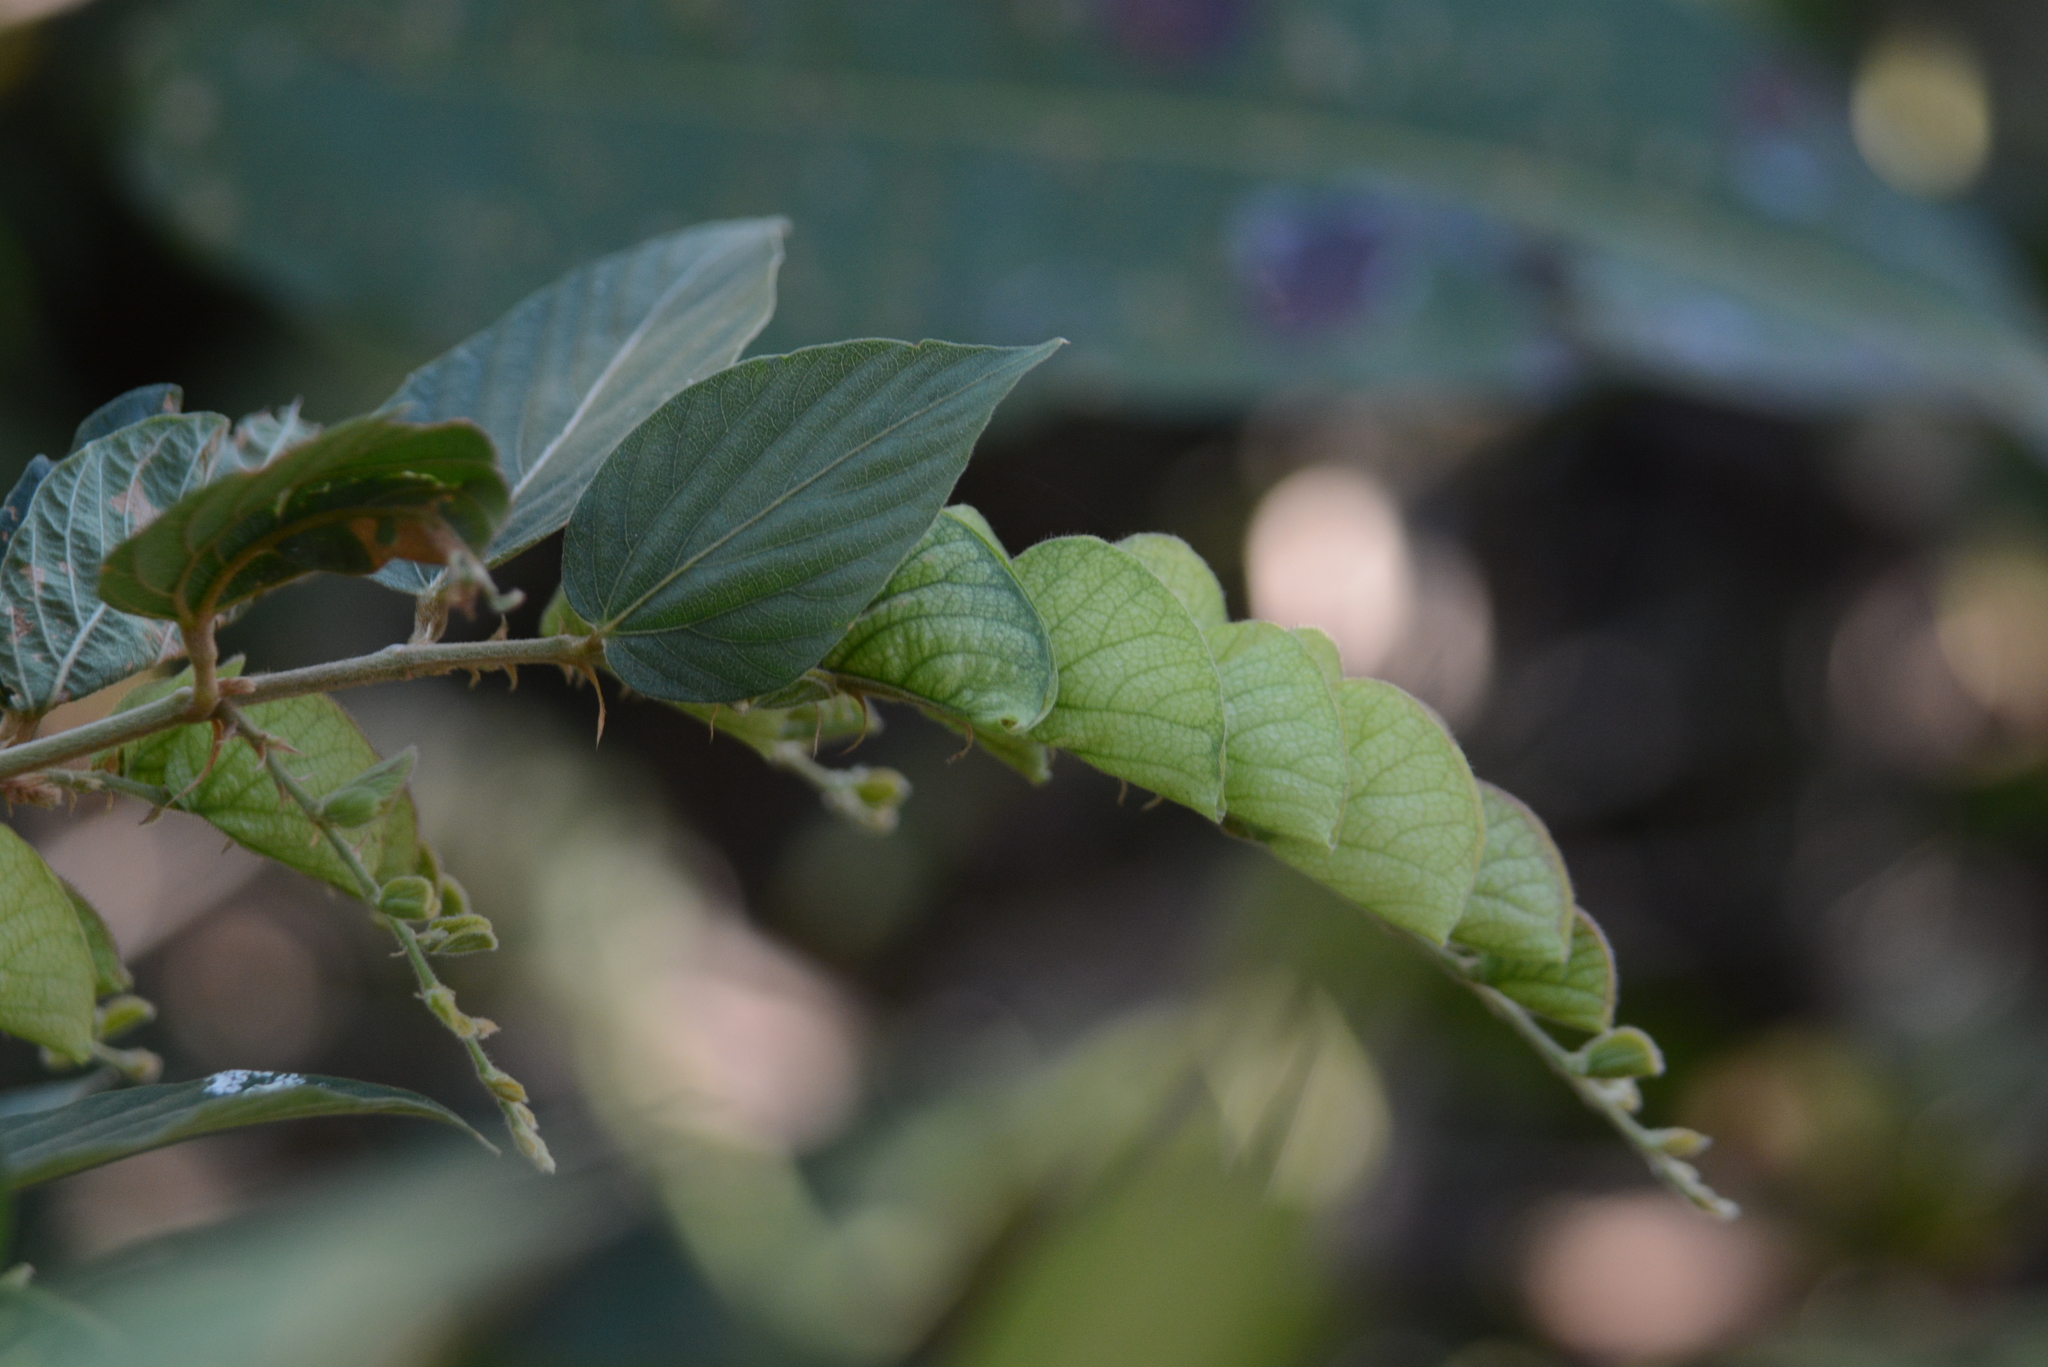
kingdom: Plantae
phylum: Tracheophyta
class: Magnoliopsida
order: Fabales
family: Fabaceae
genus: Flemingia
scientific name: Flemingia strobilifera
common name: Wild hops
